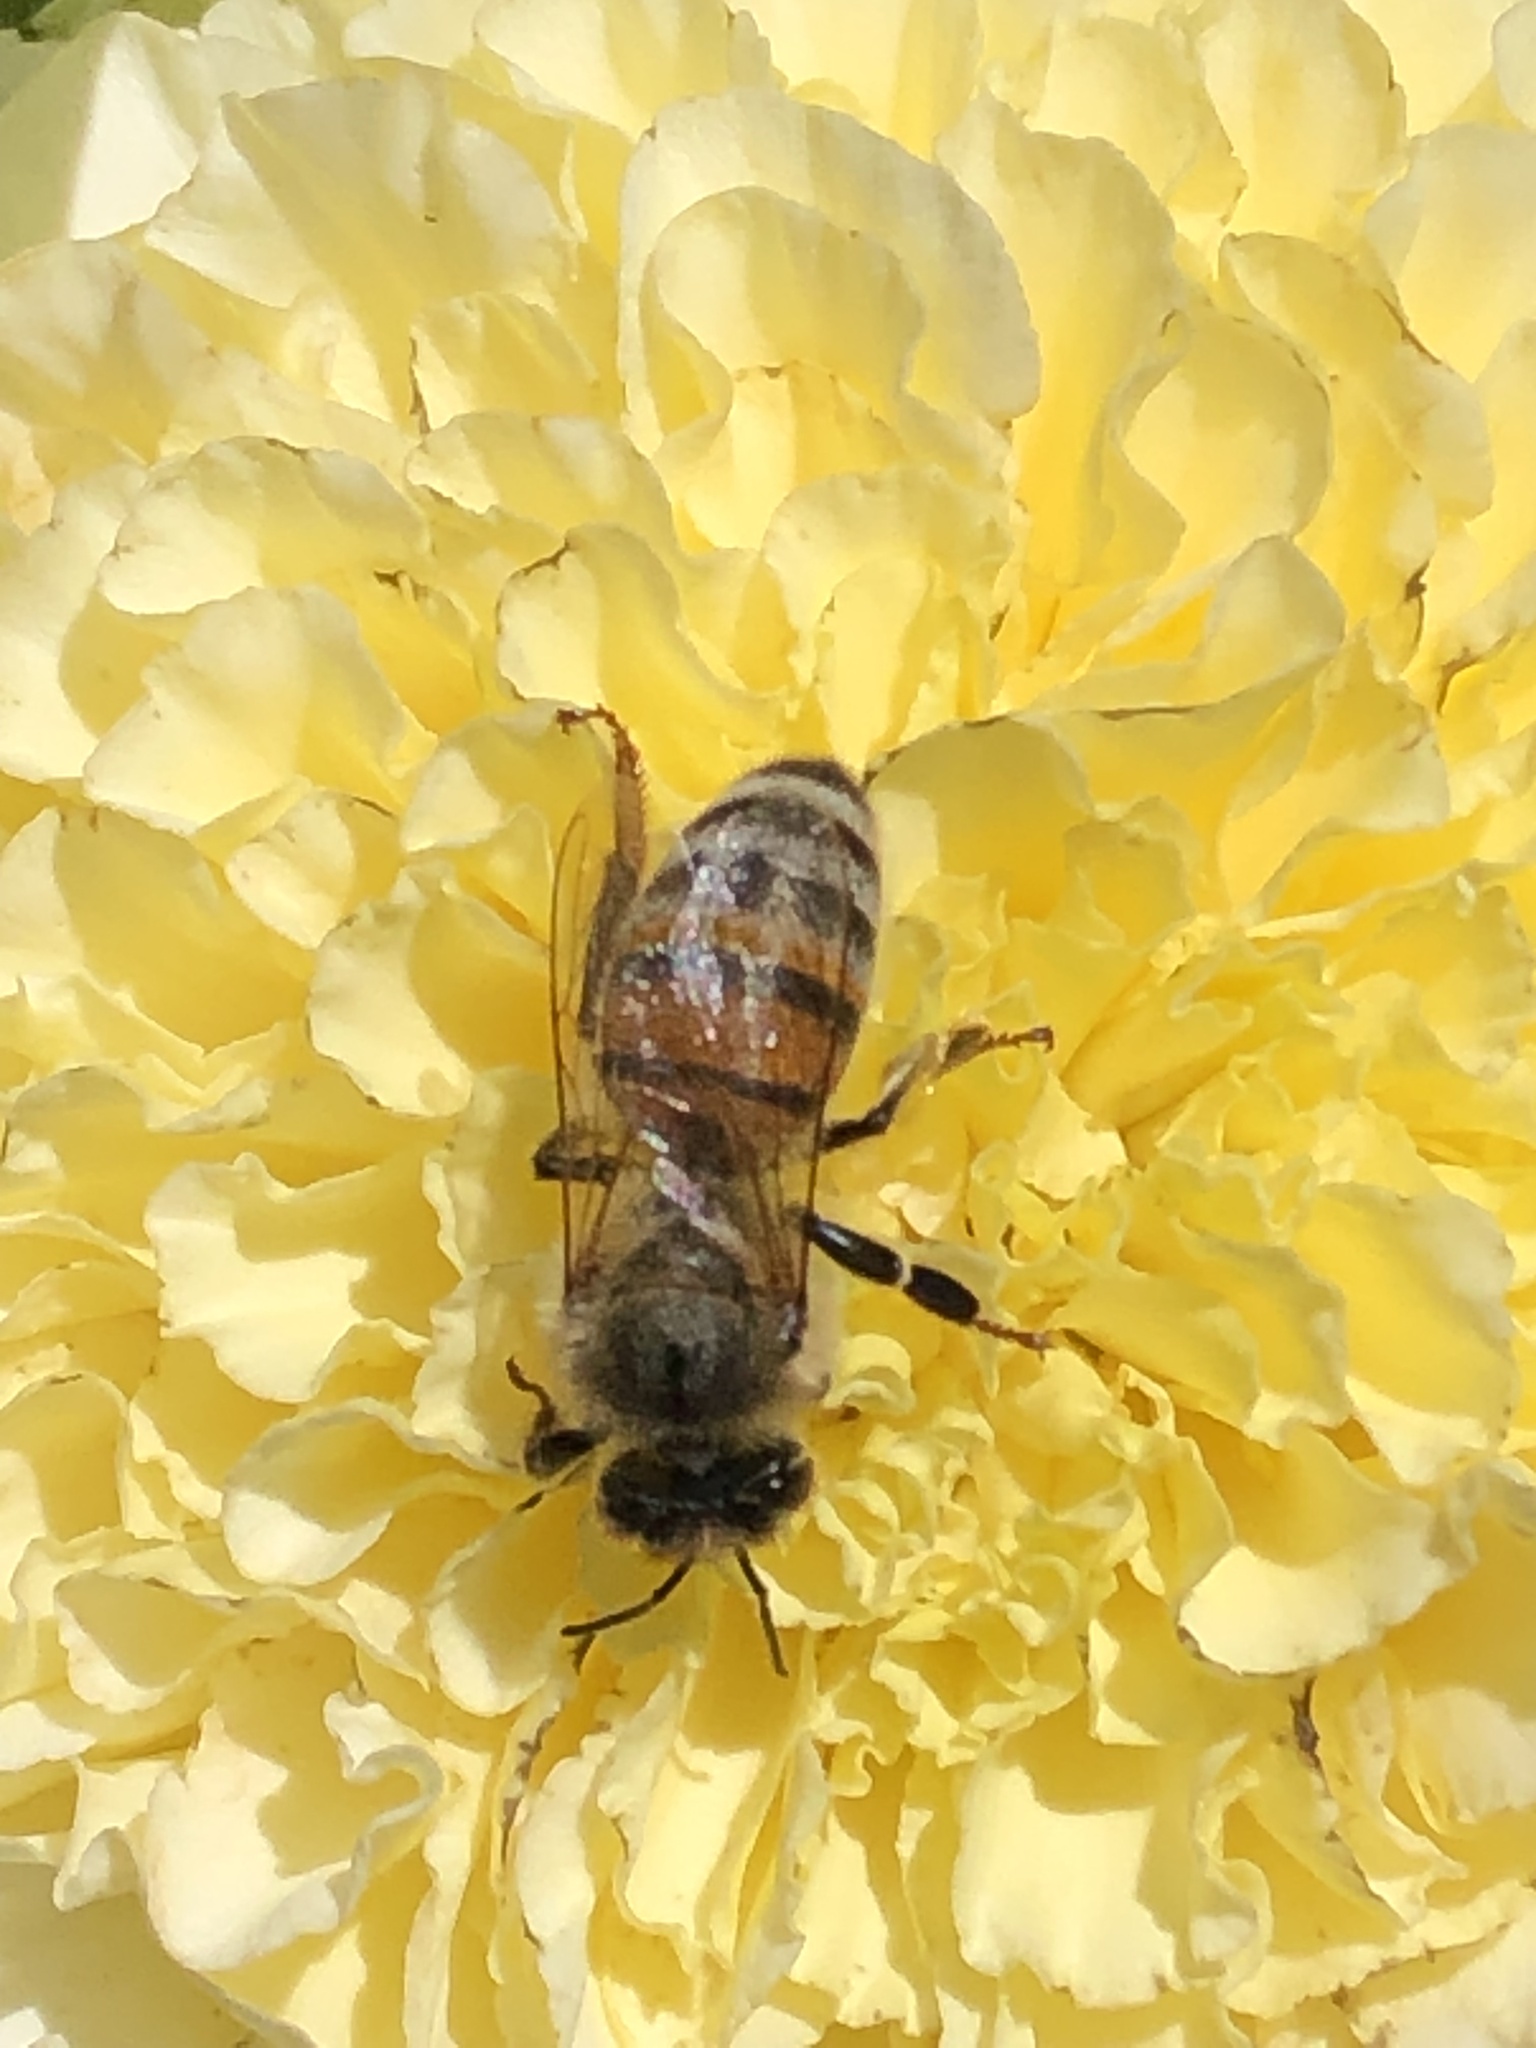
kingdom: Animalia
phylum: Arthropoda
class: Insecta
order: Hymenoptera
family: Apidae
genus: Apis
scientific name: Apis mellifera
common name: Honey bee
